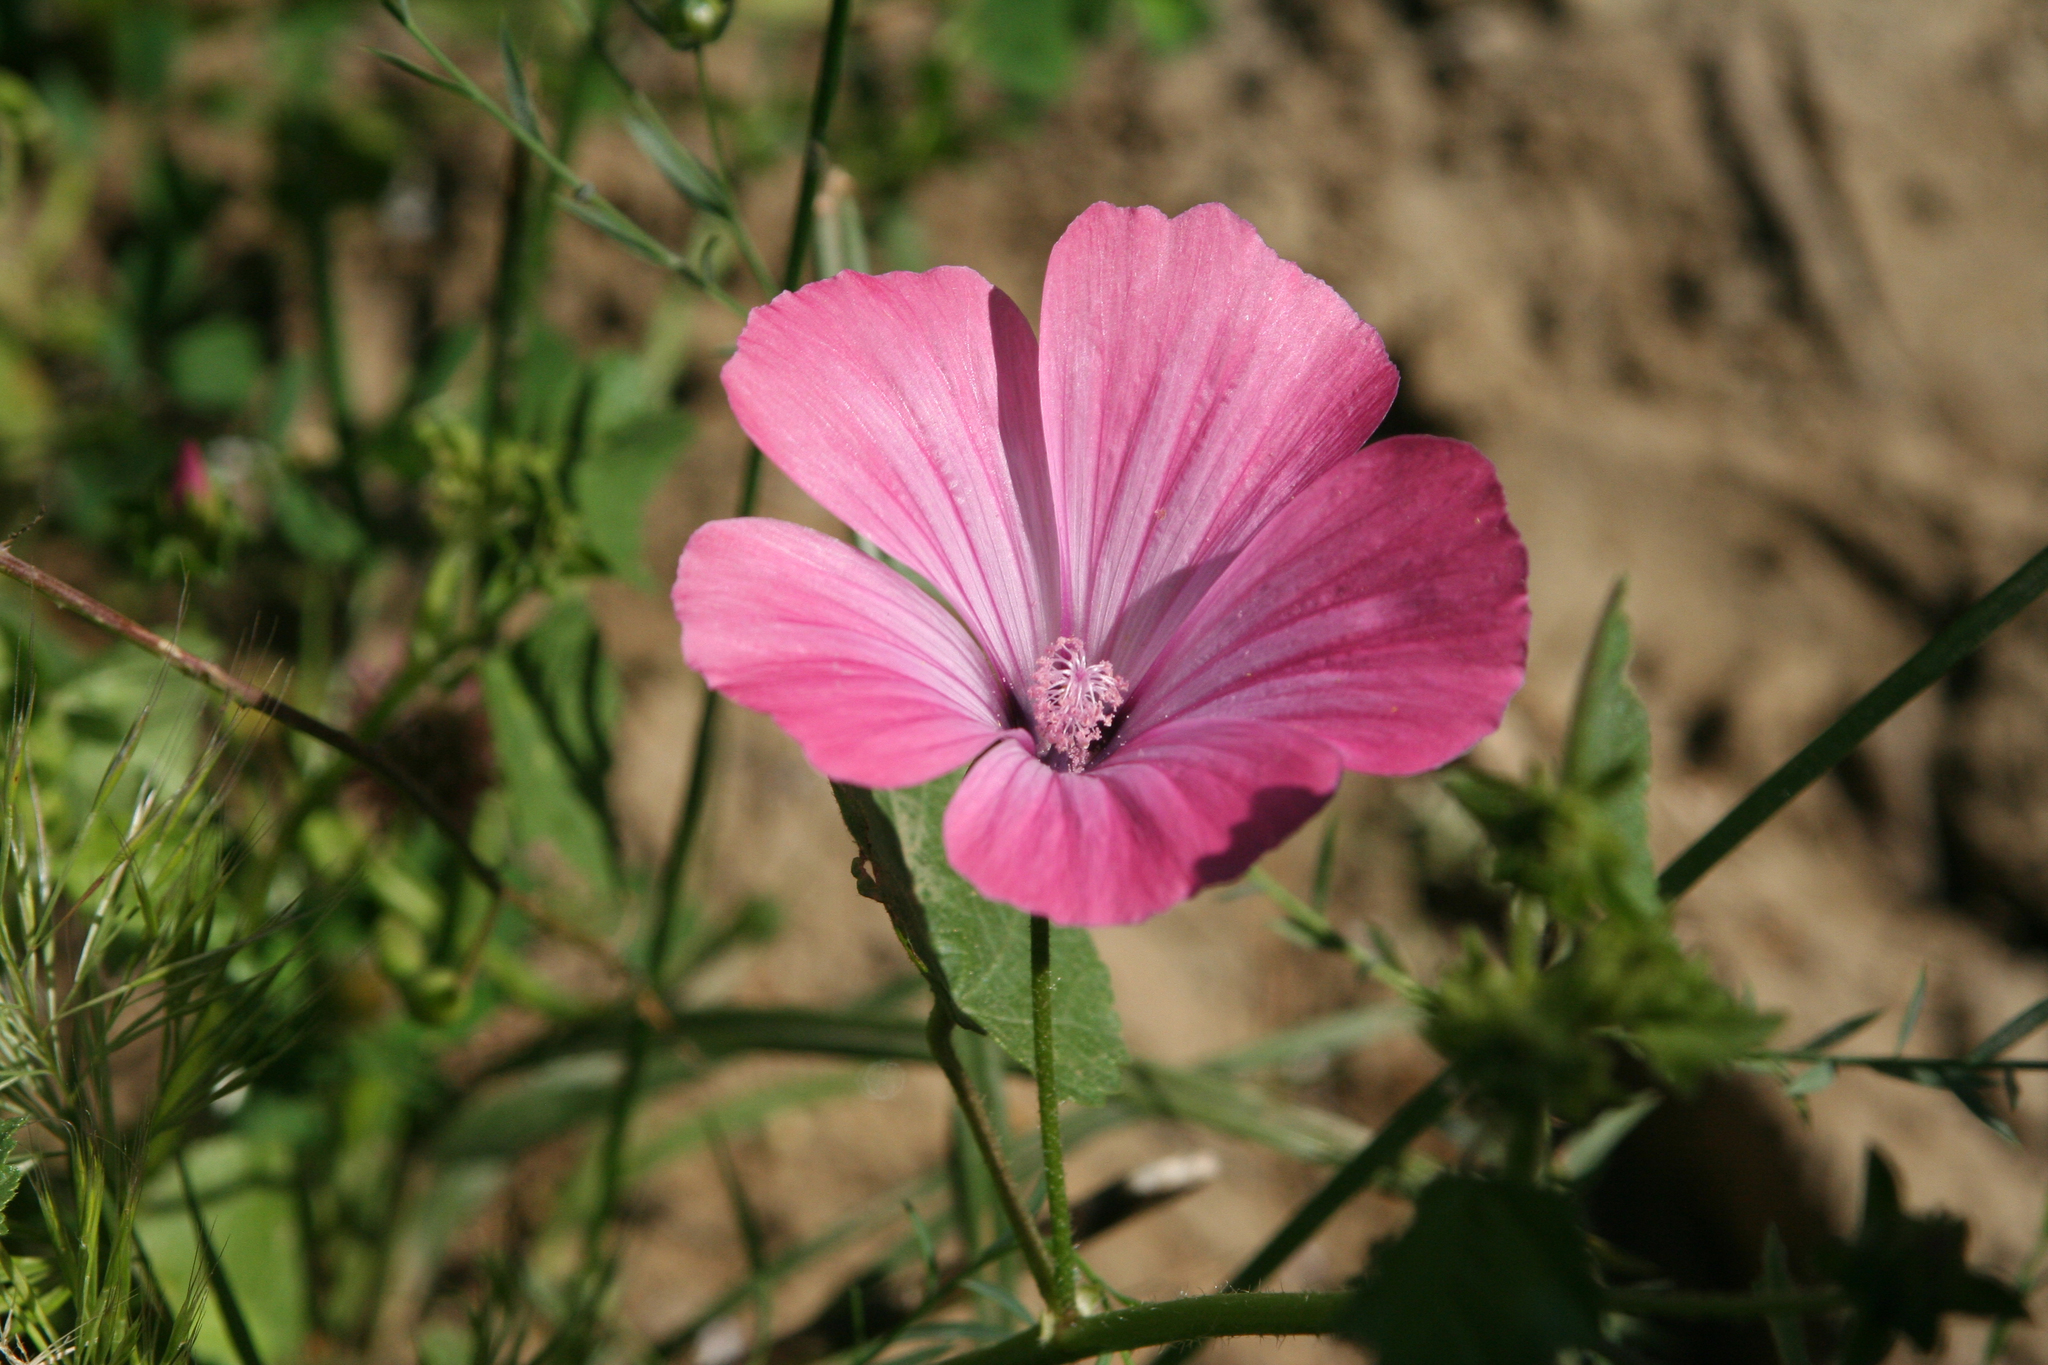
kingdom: Plantae
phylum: Tracheophyta
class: Magnoliopsida
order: Malvales
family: Malvaceae
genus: Malva
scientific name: Malva trimestris
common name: Royal mallow
